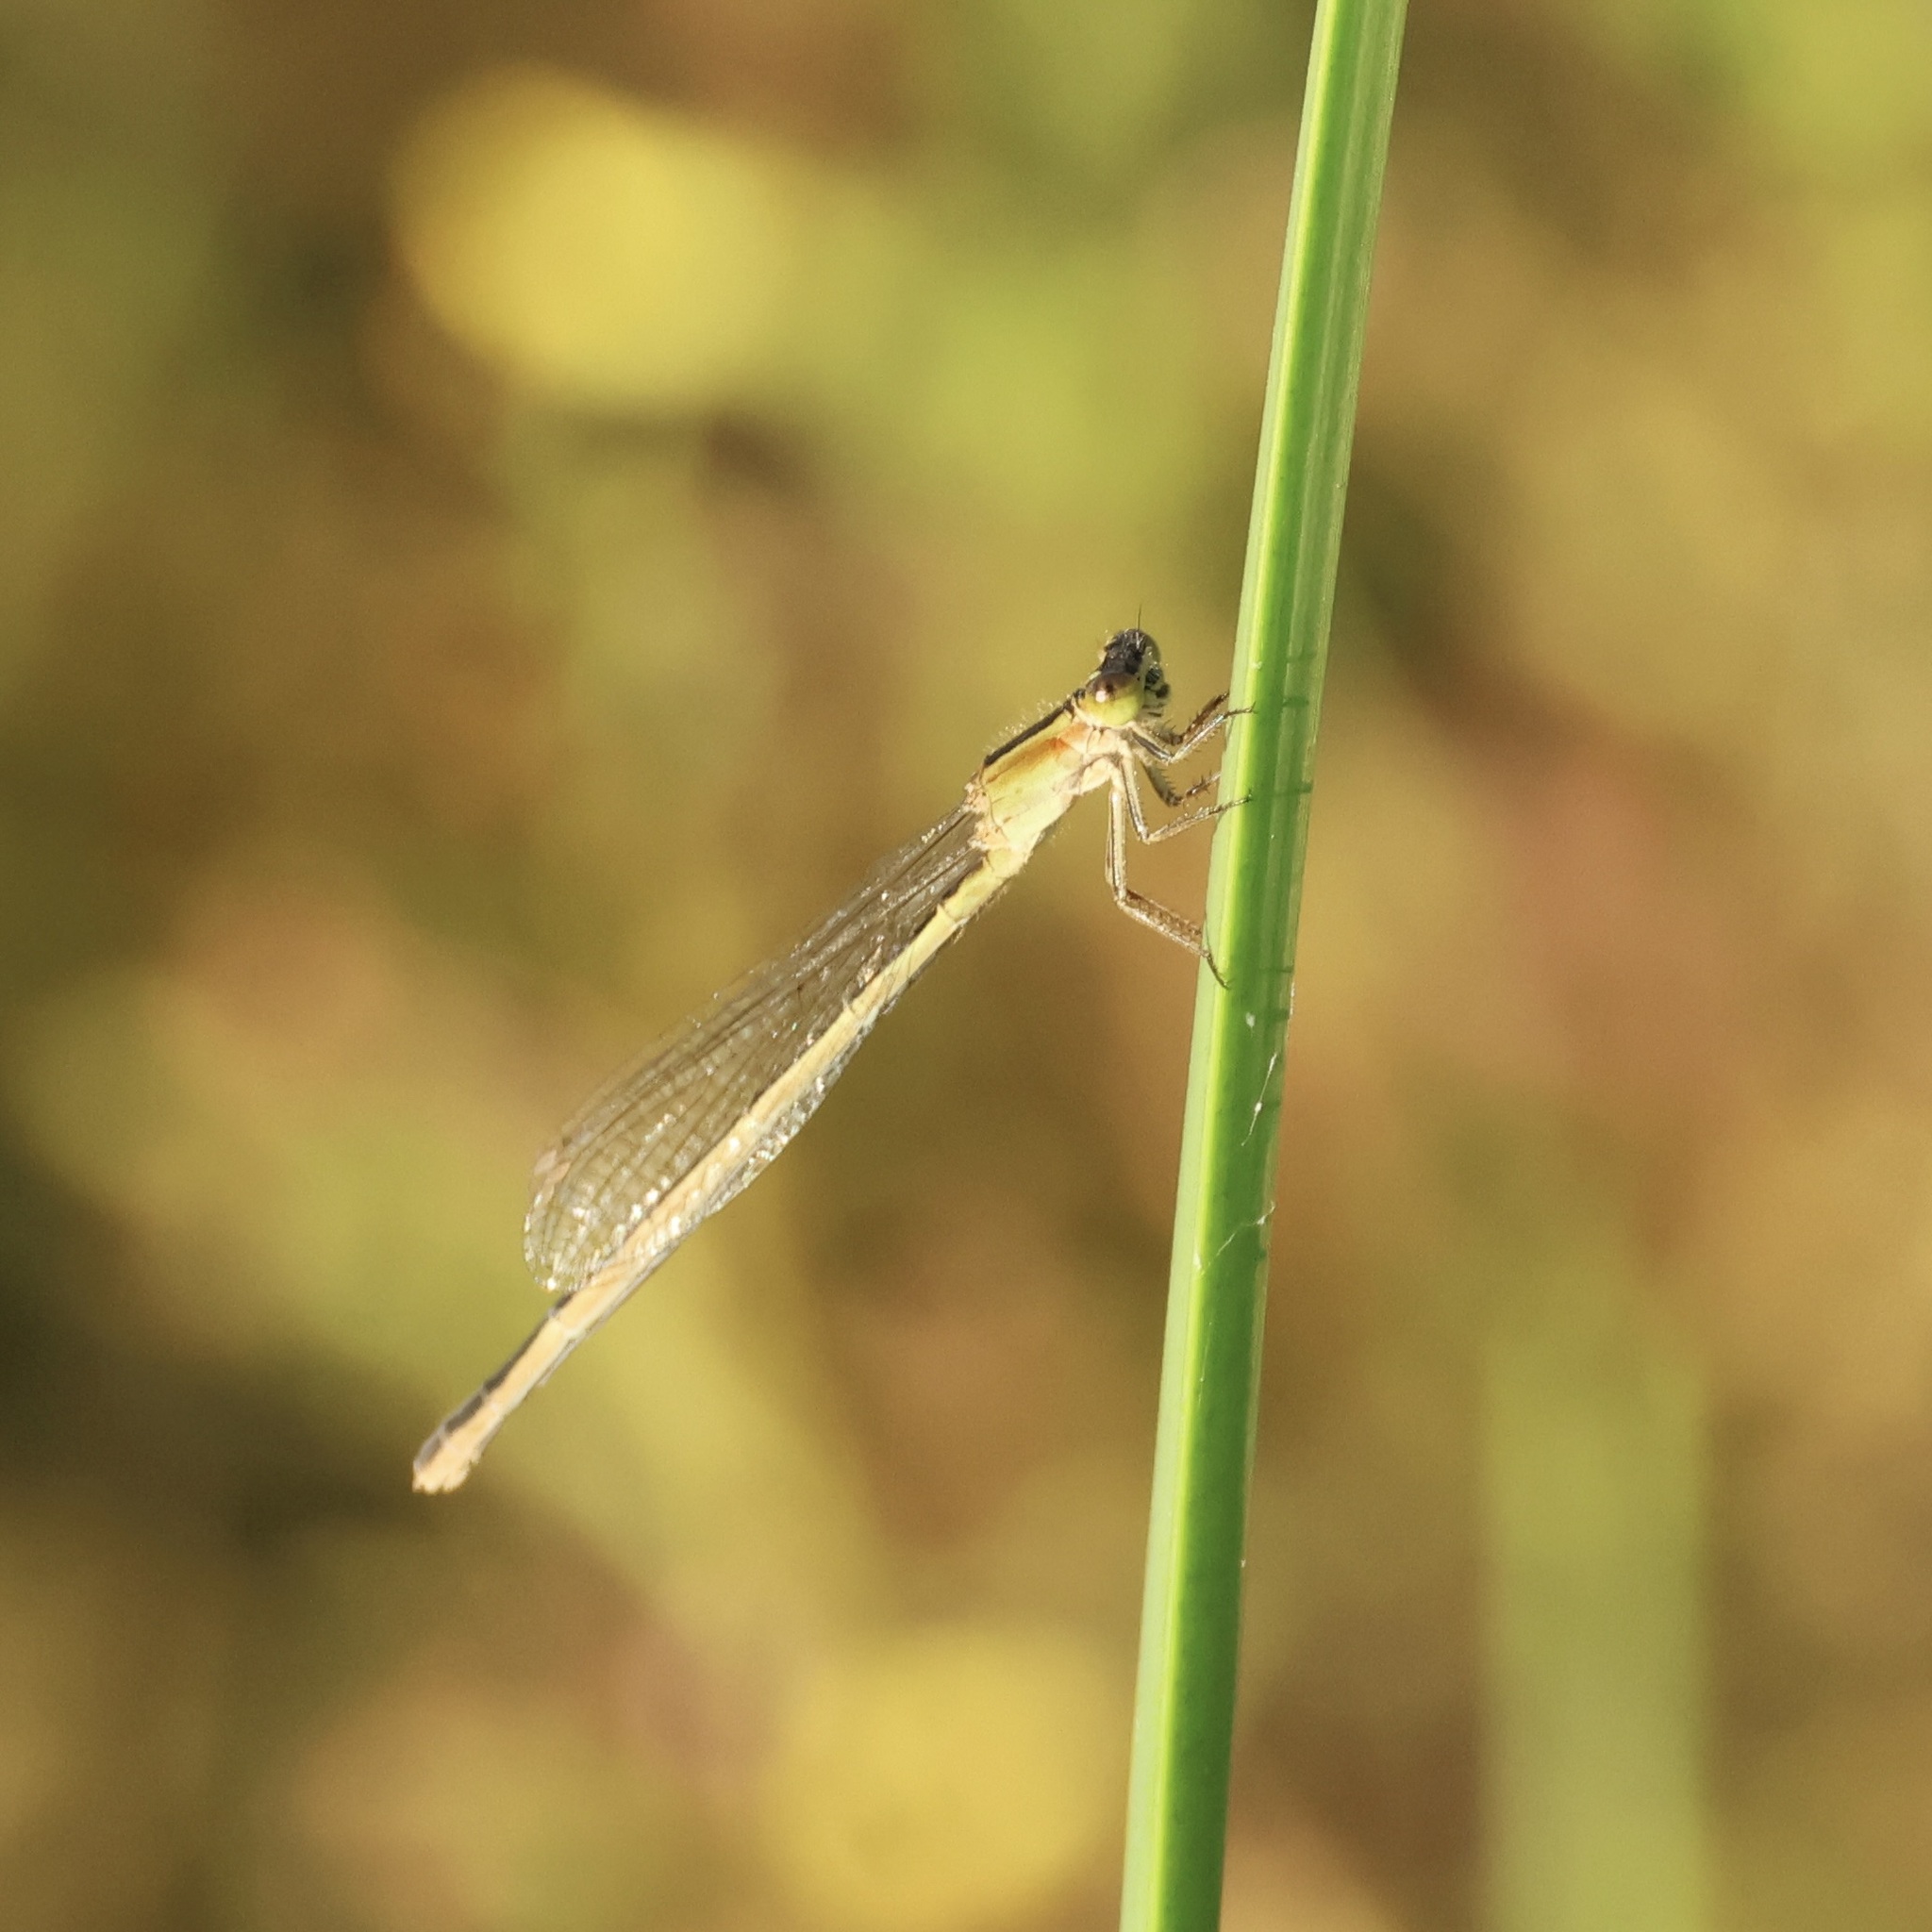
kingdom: Animalia
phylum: Arthropoda
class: Insecta
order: Odonata
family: Coenagrionidae
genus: Ischnura
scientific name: Ischnura ramburii
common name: Rambur's forktail
